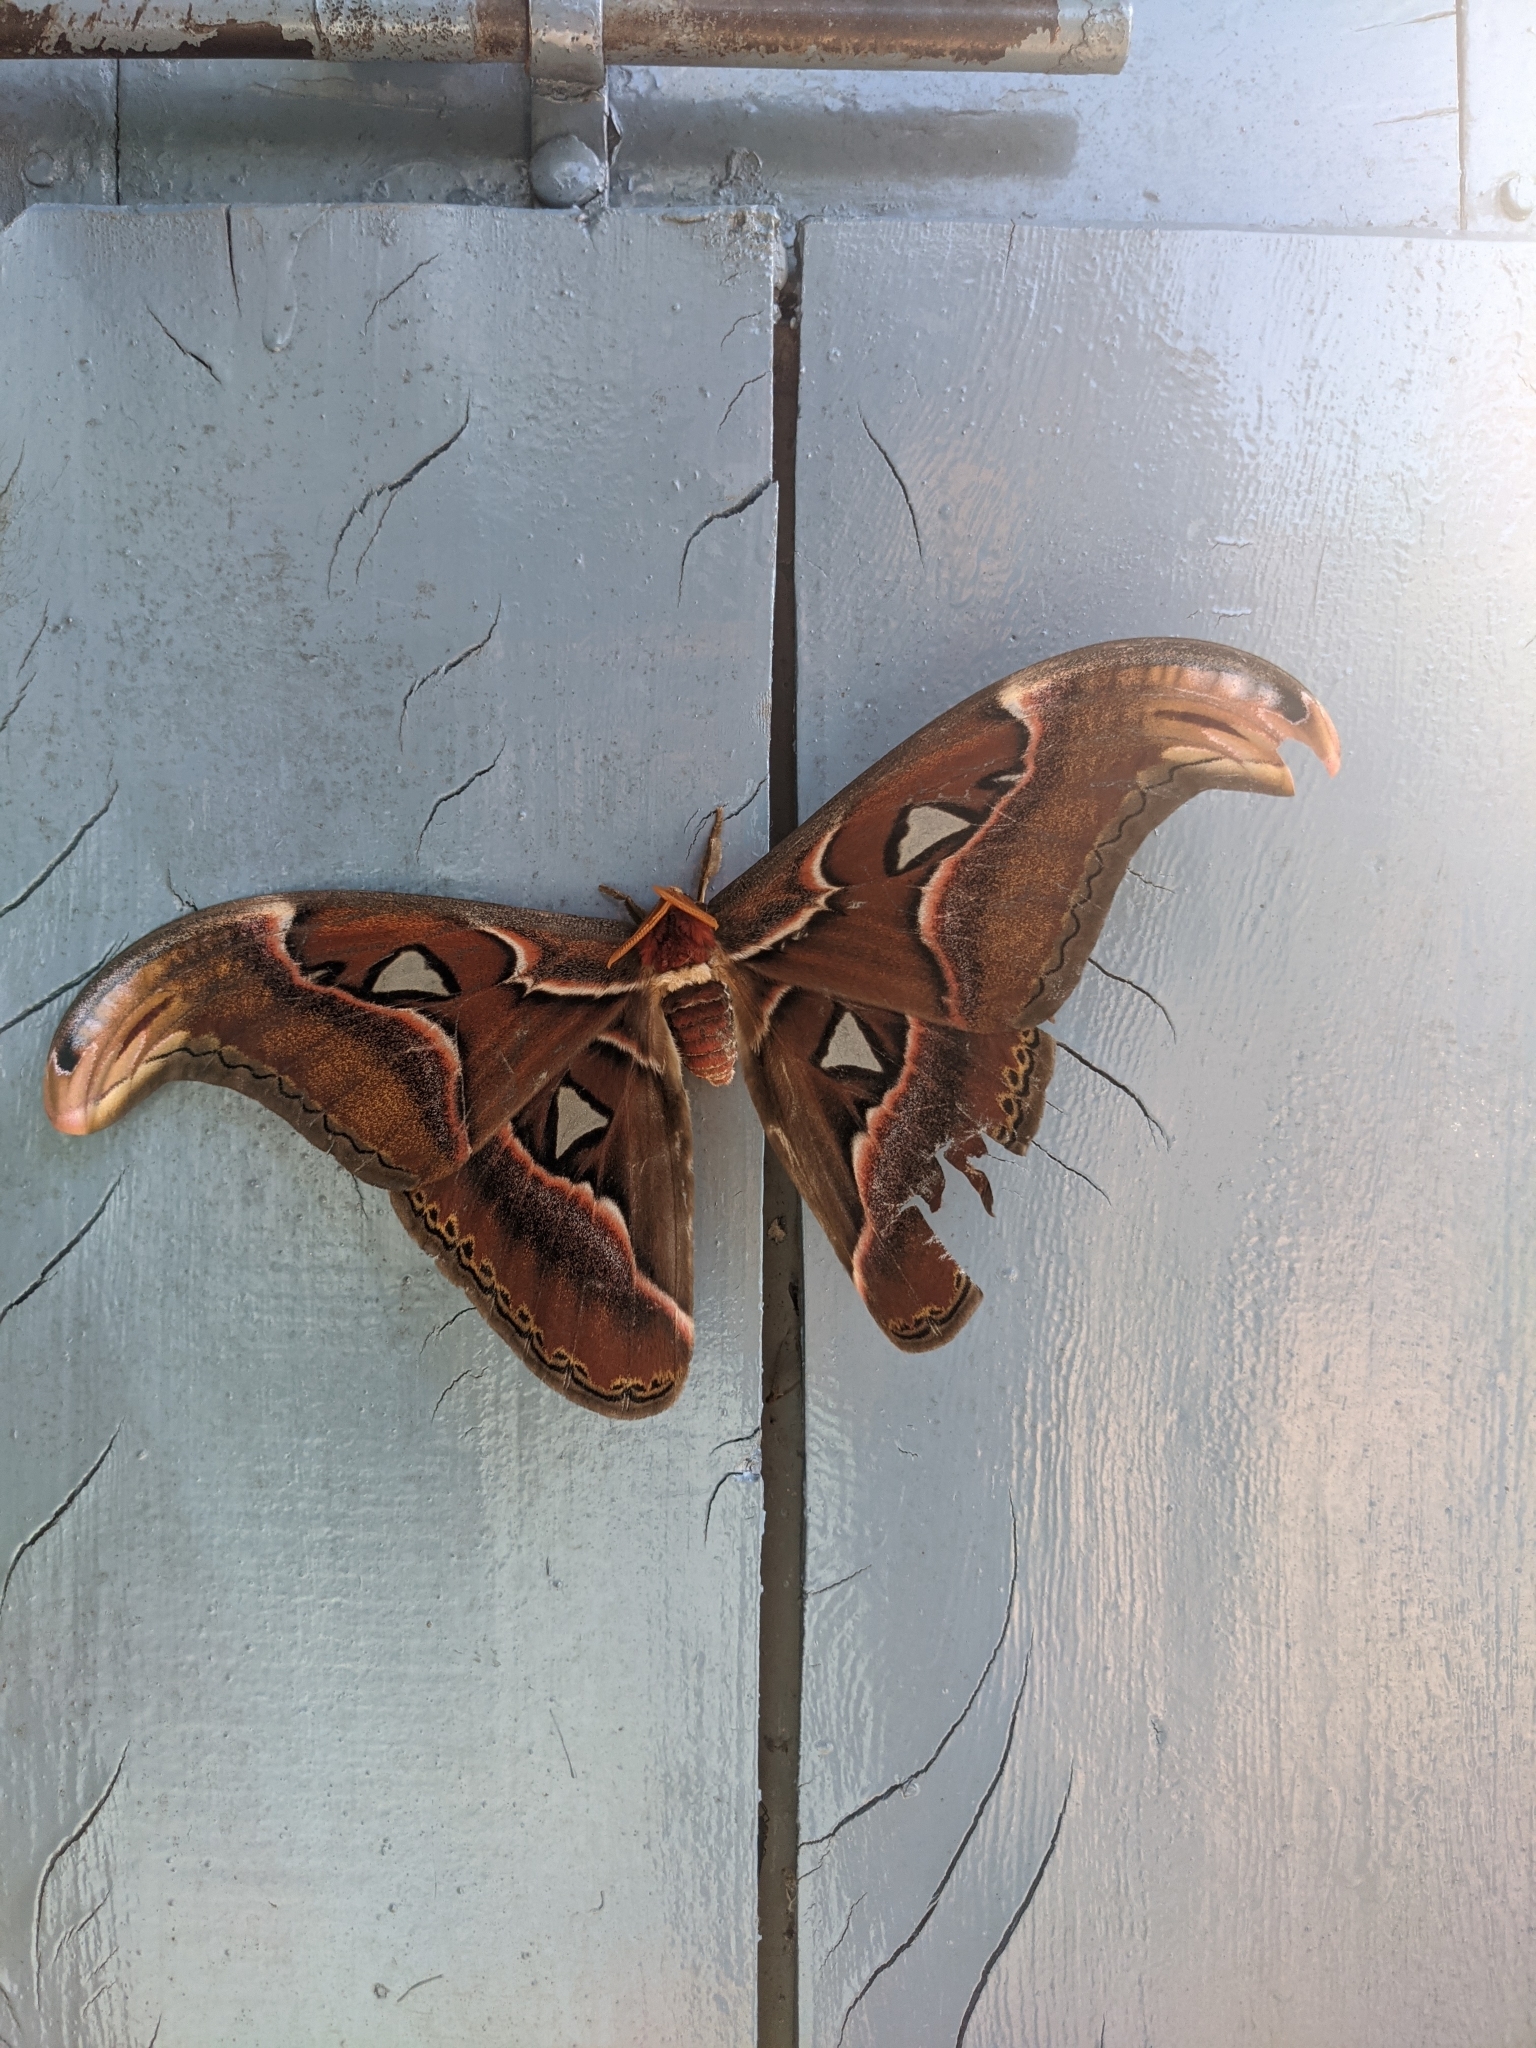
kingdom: Animalia
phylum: Arthropoda
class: Insecta
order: Lepidoptera
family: Saturniidae
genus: Attacus
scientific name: Attacus taprobanis
